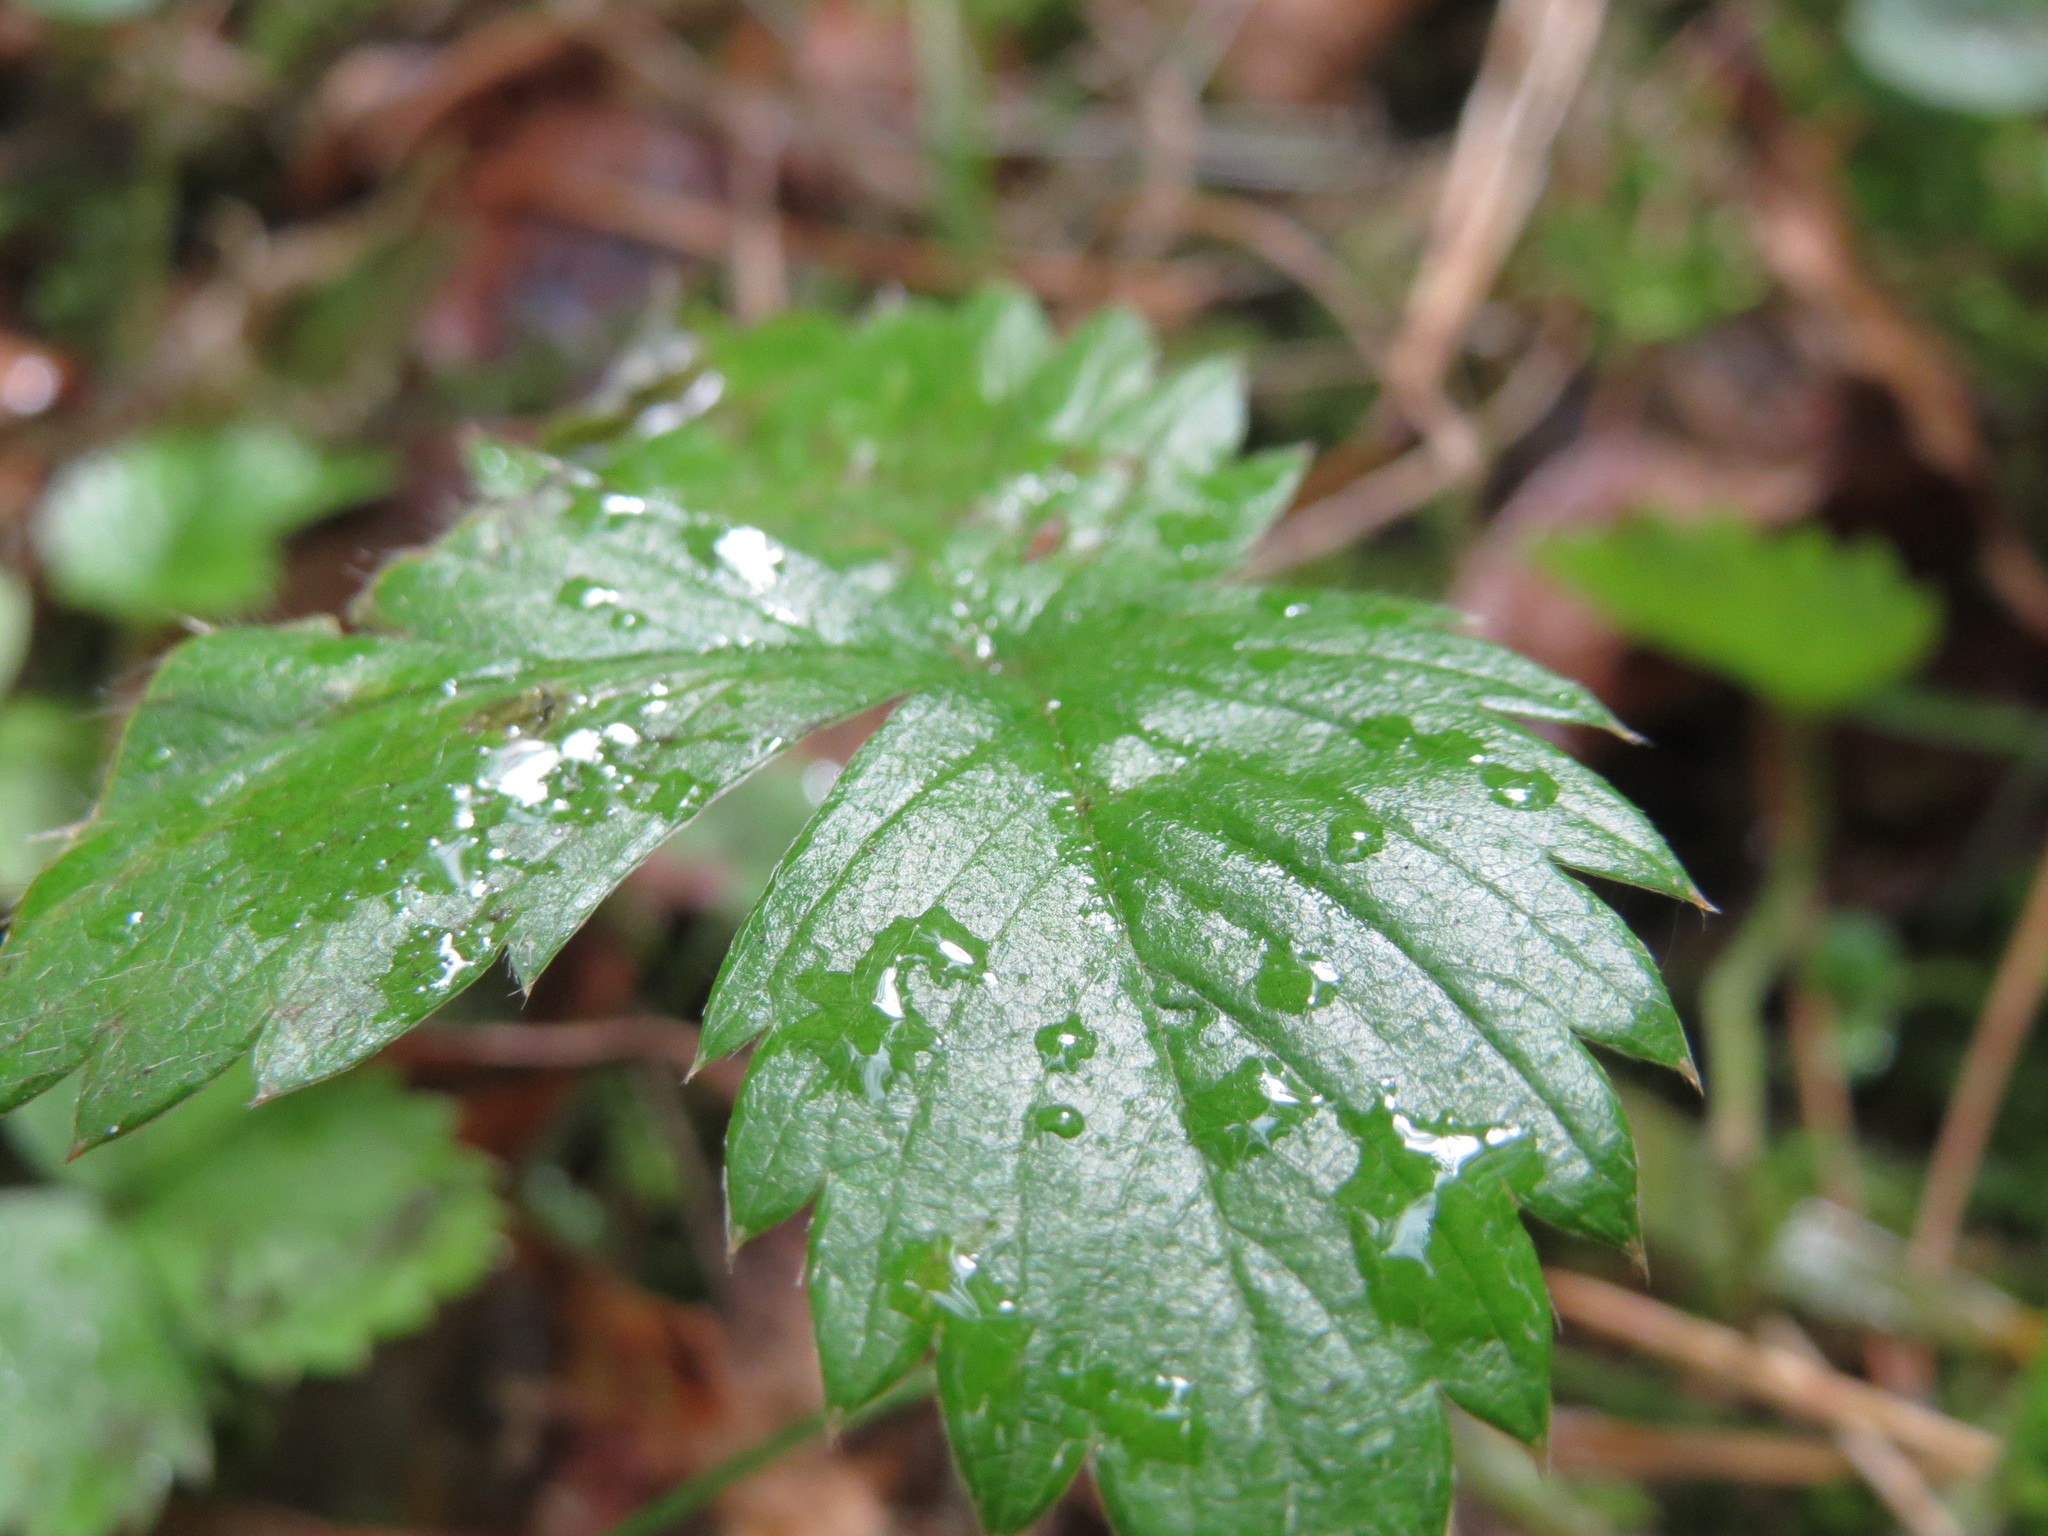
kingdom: Plantae
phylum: Tracheophyta
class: Magnoliopsida
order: Rosales
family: Rosaceae
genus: Fragaria
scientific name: Fragaria vesca
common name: Wild strawberry
